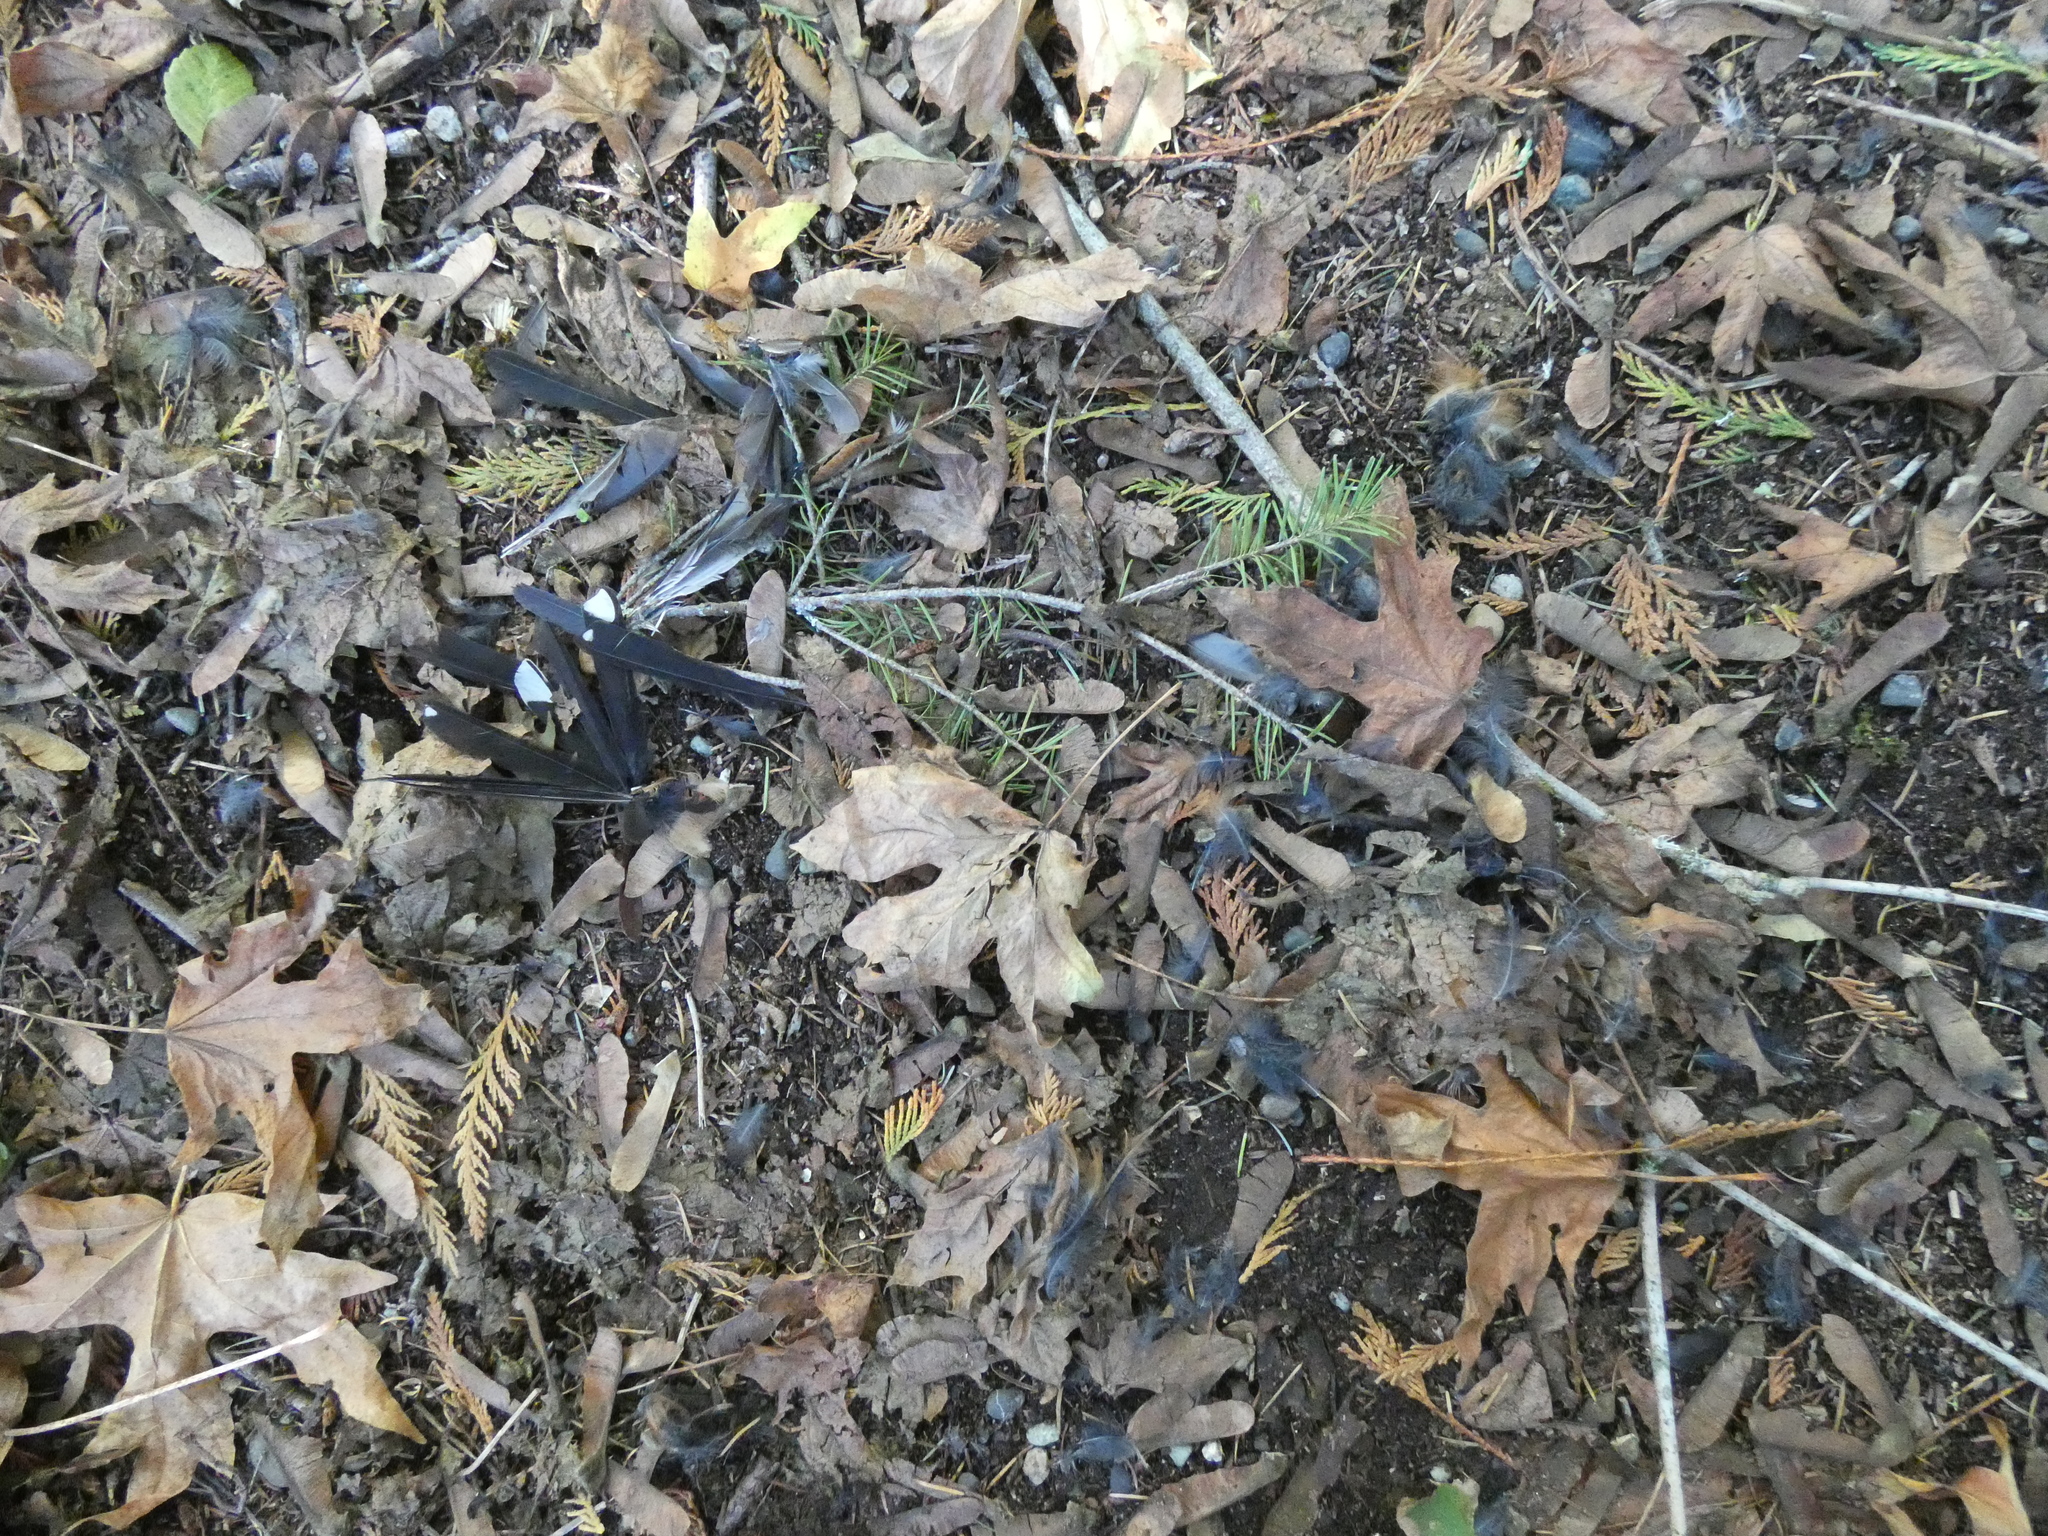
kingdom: Animalia
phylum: Chordata
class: Aves
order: Passeriformes
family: Passerellidae
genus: Pipilo
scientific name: Pipilo maculatus
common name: Spotted towhee
